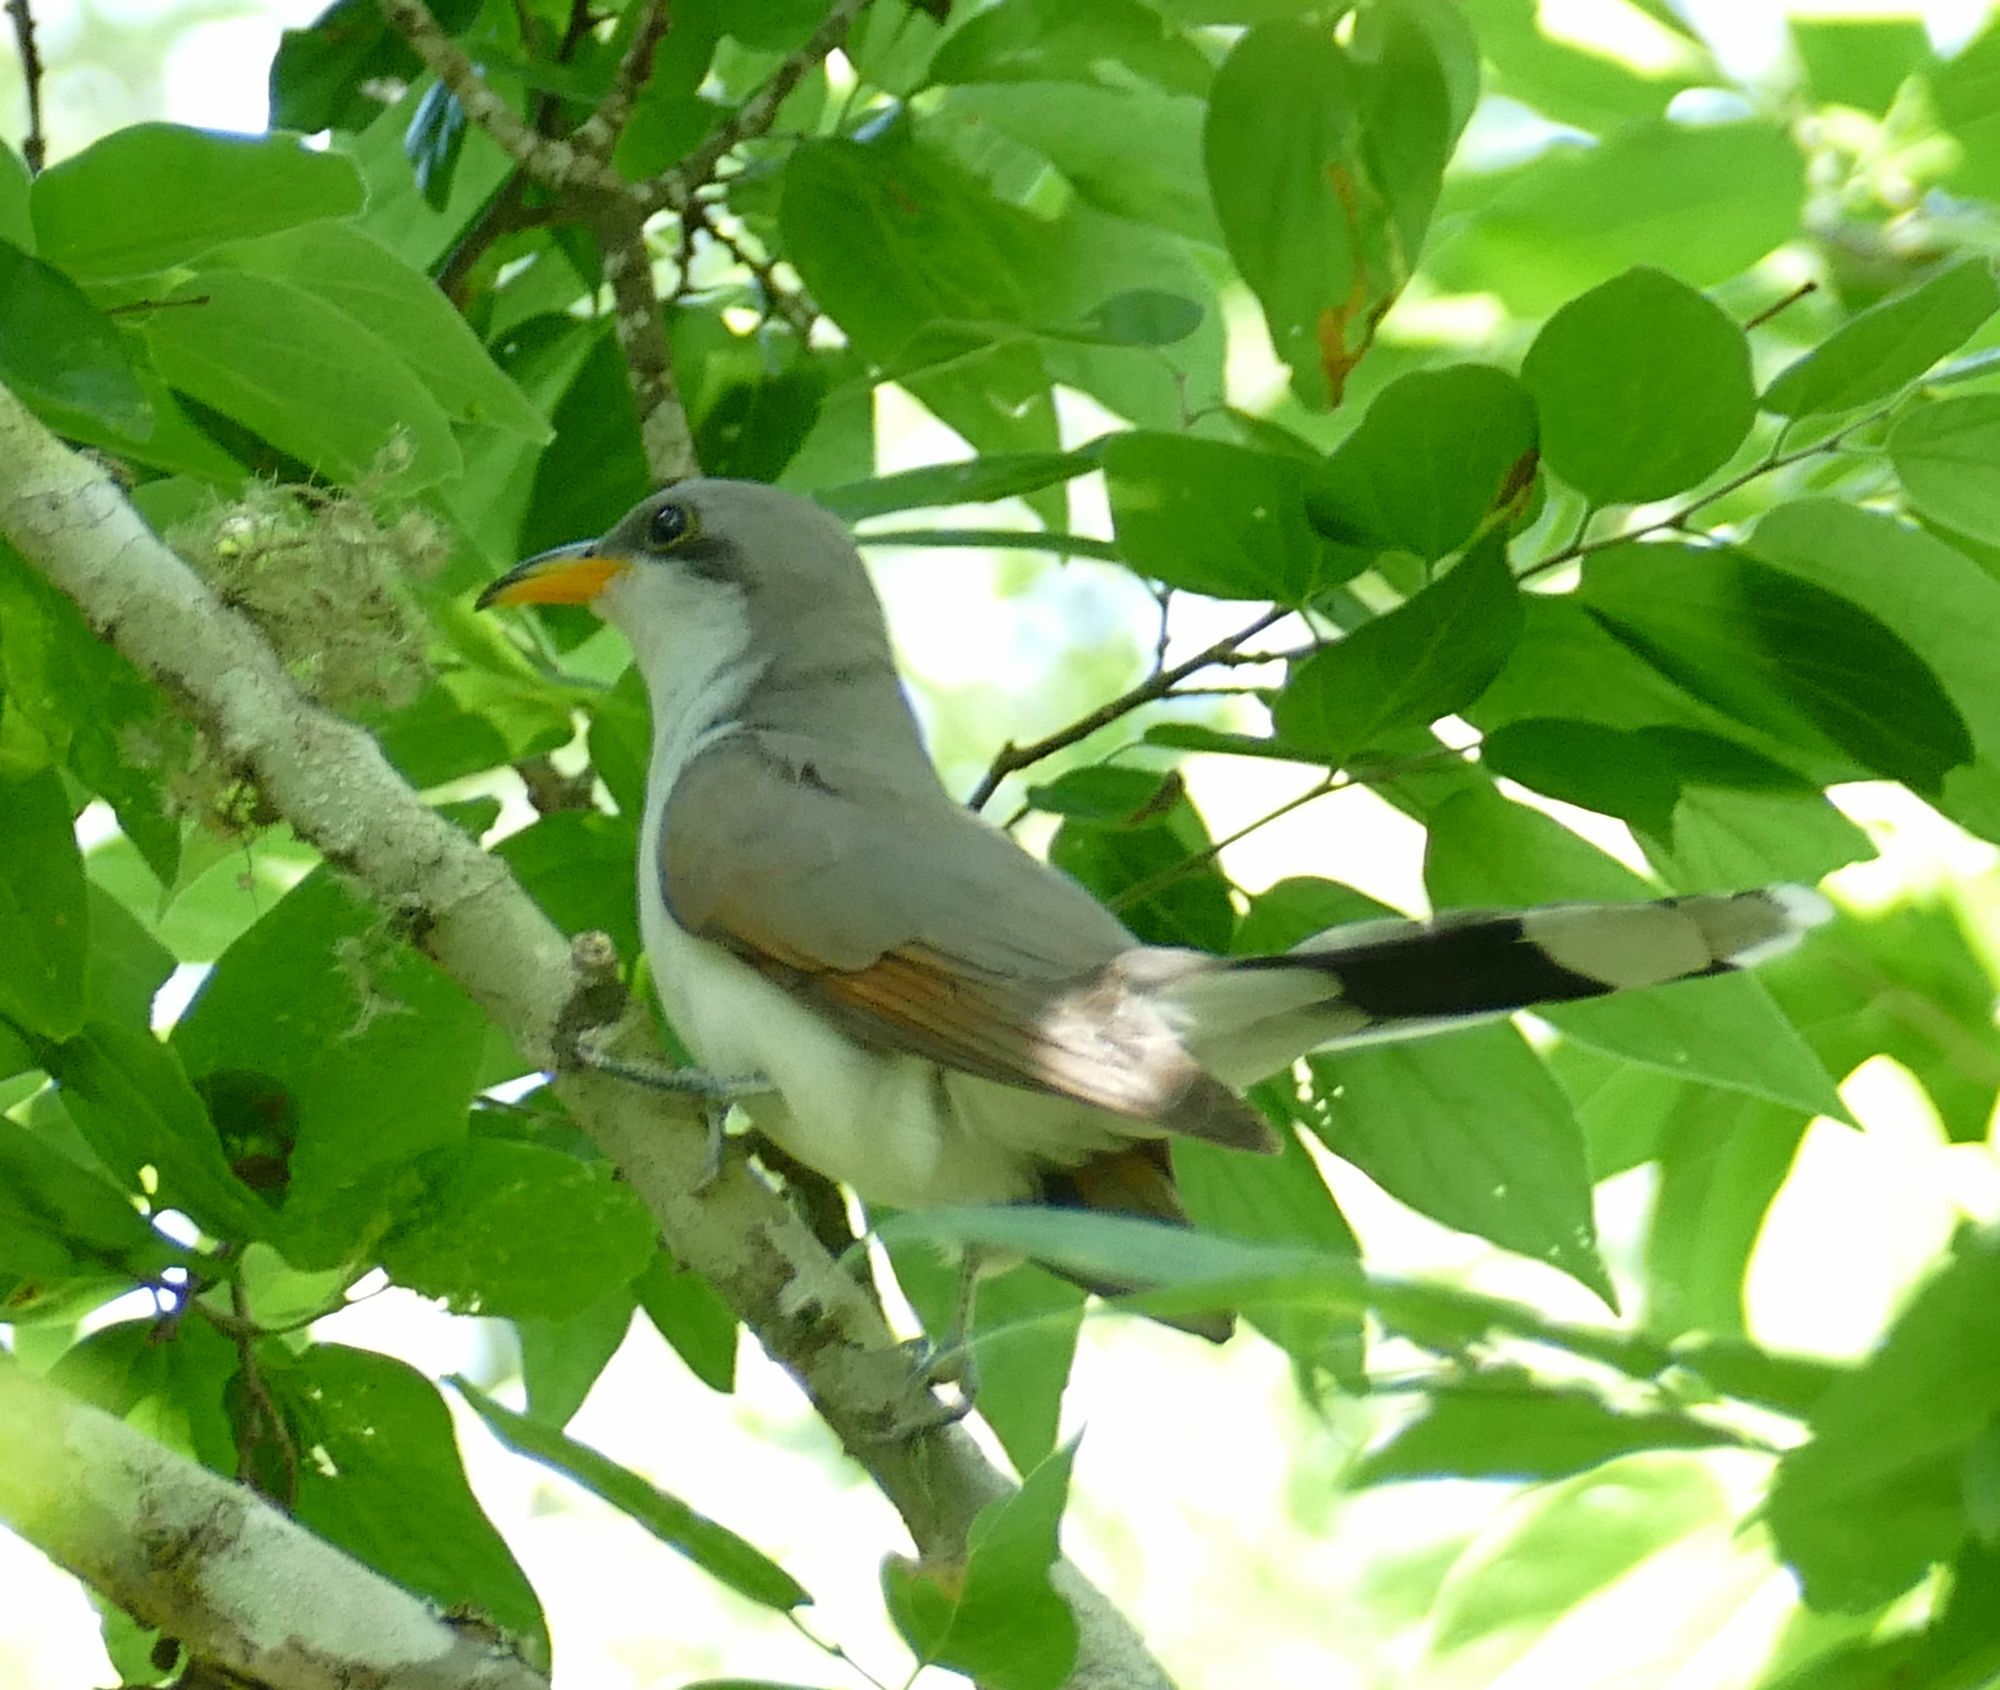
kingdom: Animalia
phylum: Chordata
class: Aves
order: Cuculiformes
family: Cuculidae
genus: Coccyzus
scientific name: Coccyzus americanus
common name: Yellow-billed cuckoo
